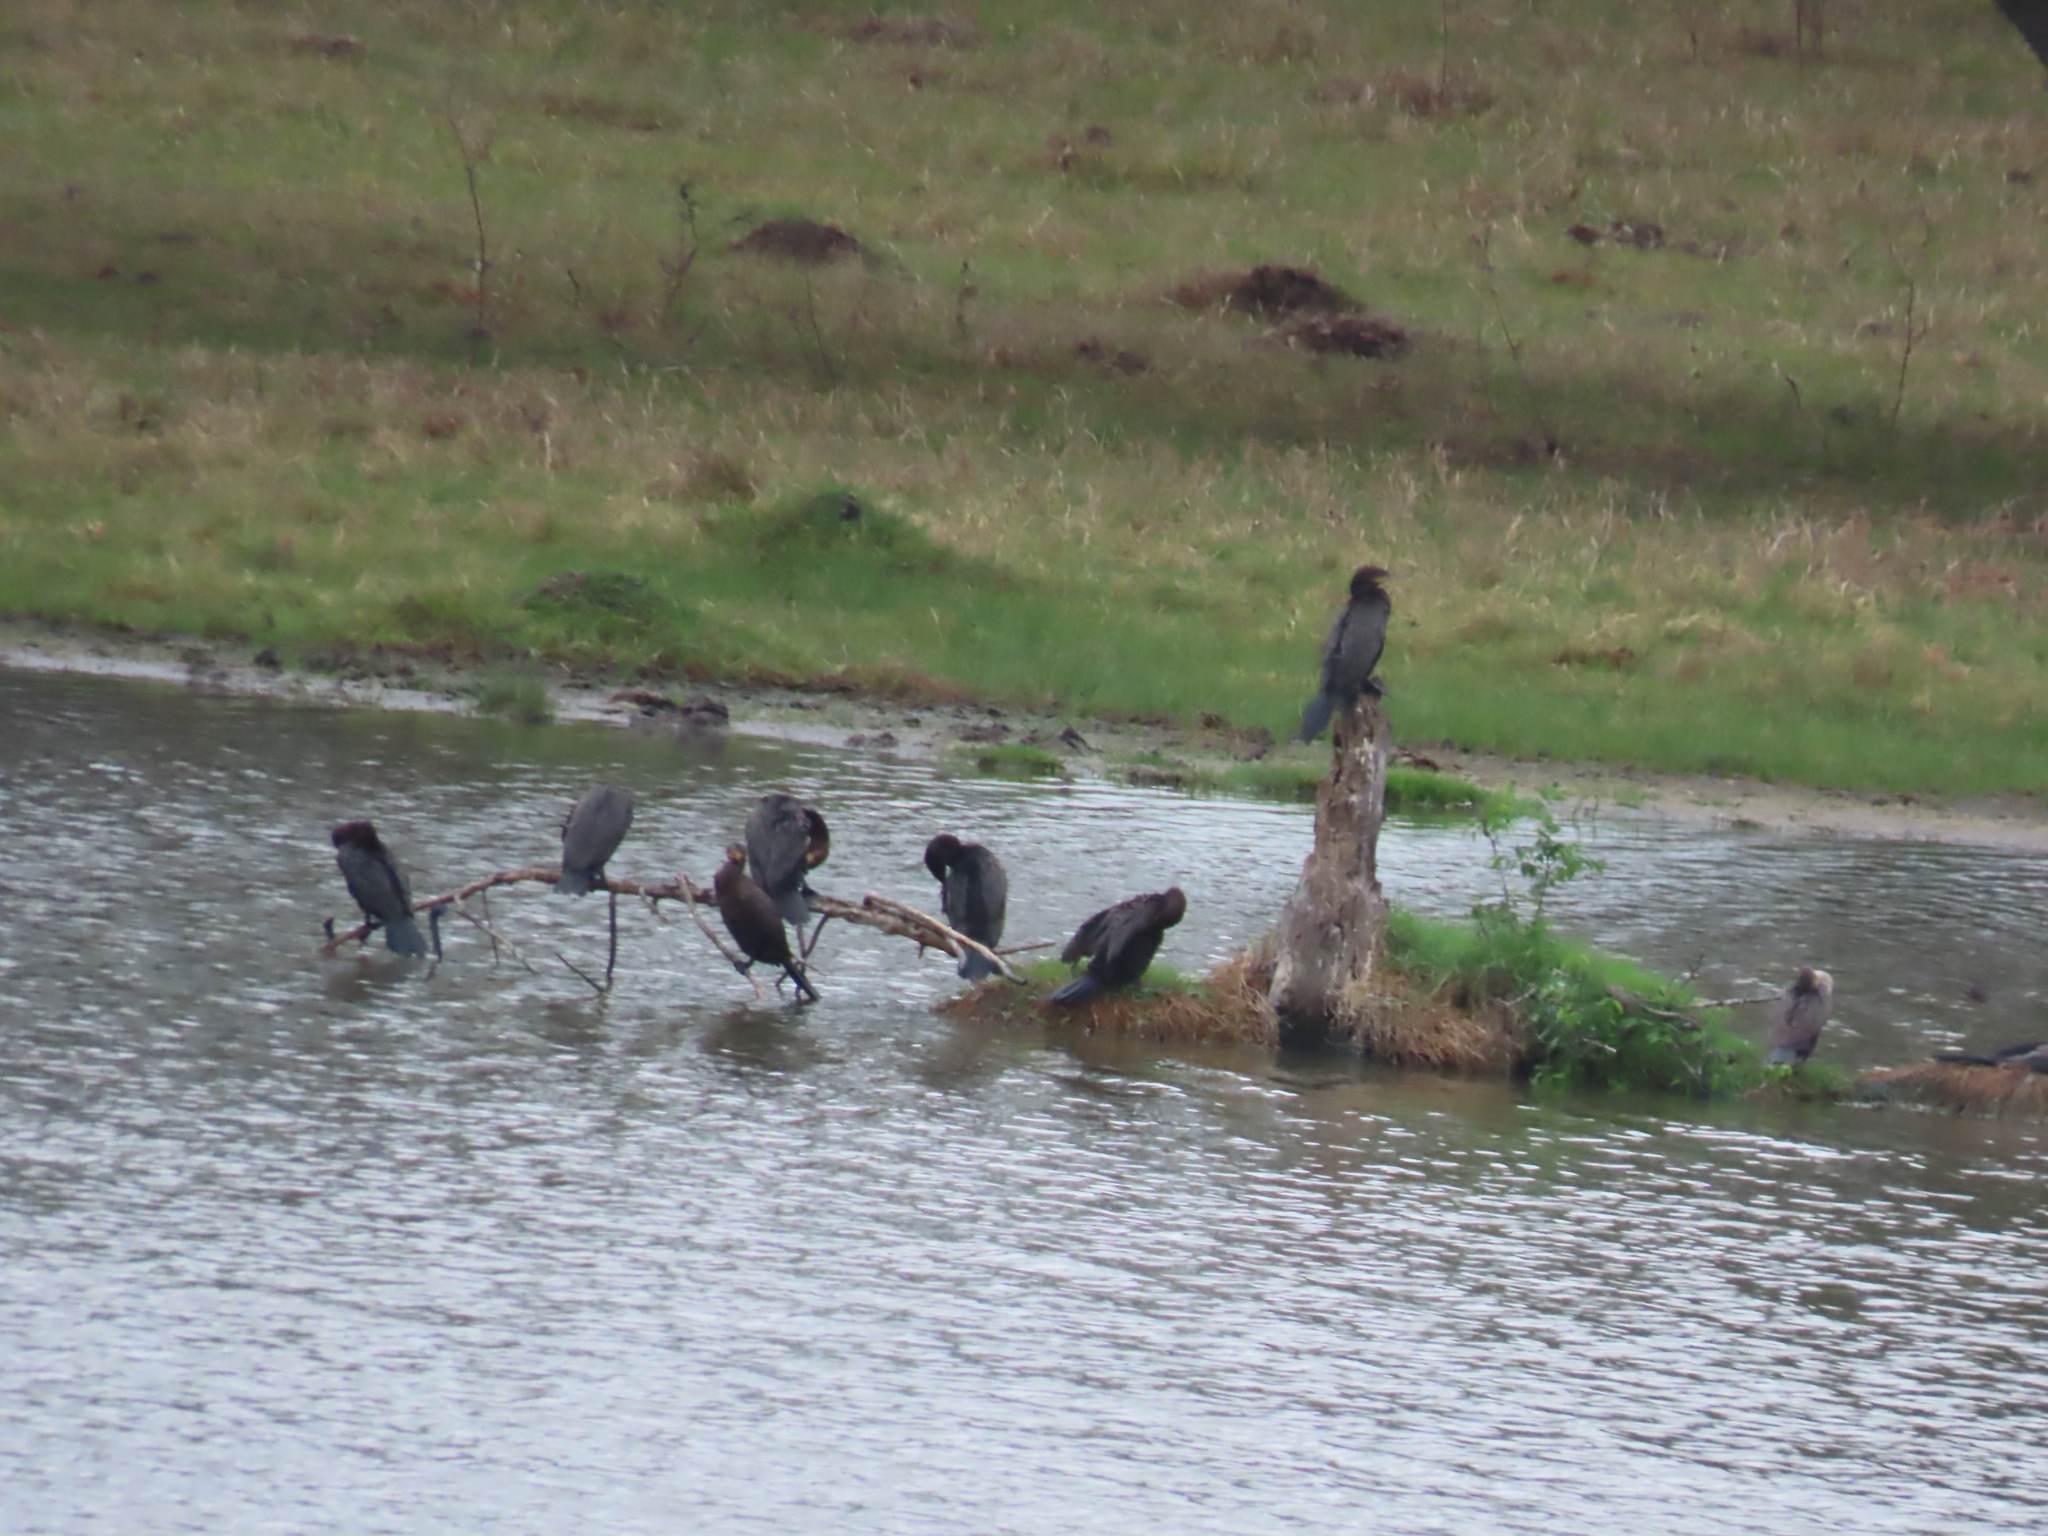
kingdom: Animalia
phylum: Chordata
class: Aves
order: Suliformes
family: Phalacrocoracidae
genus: Phalacrocorax
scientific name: Phalacrocorax brasilianus
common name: Neotropic cormorant
